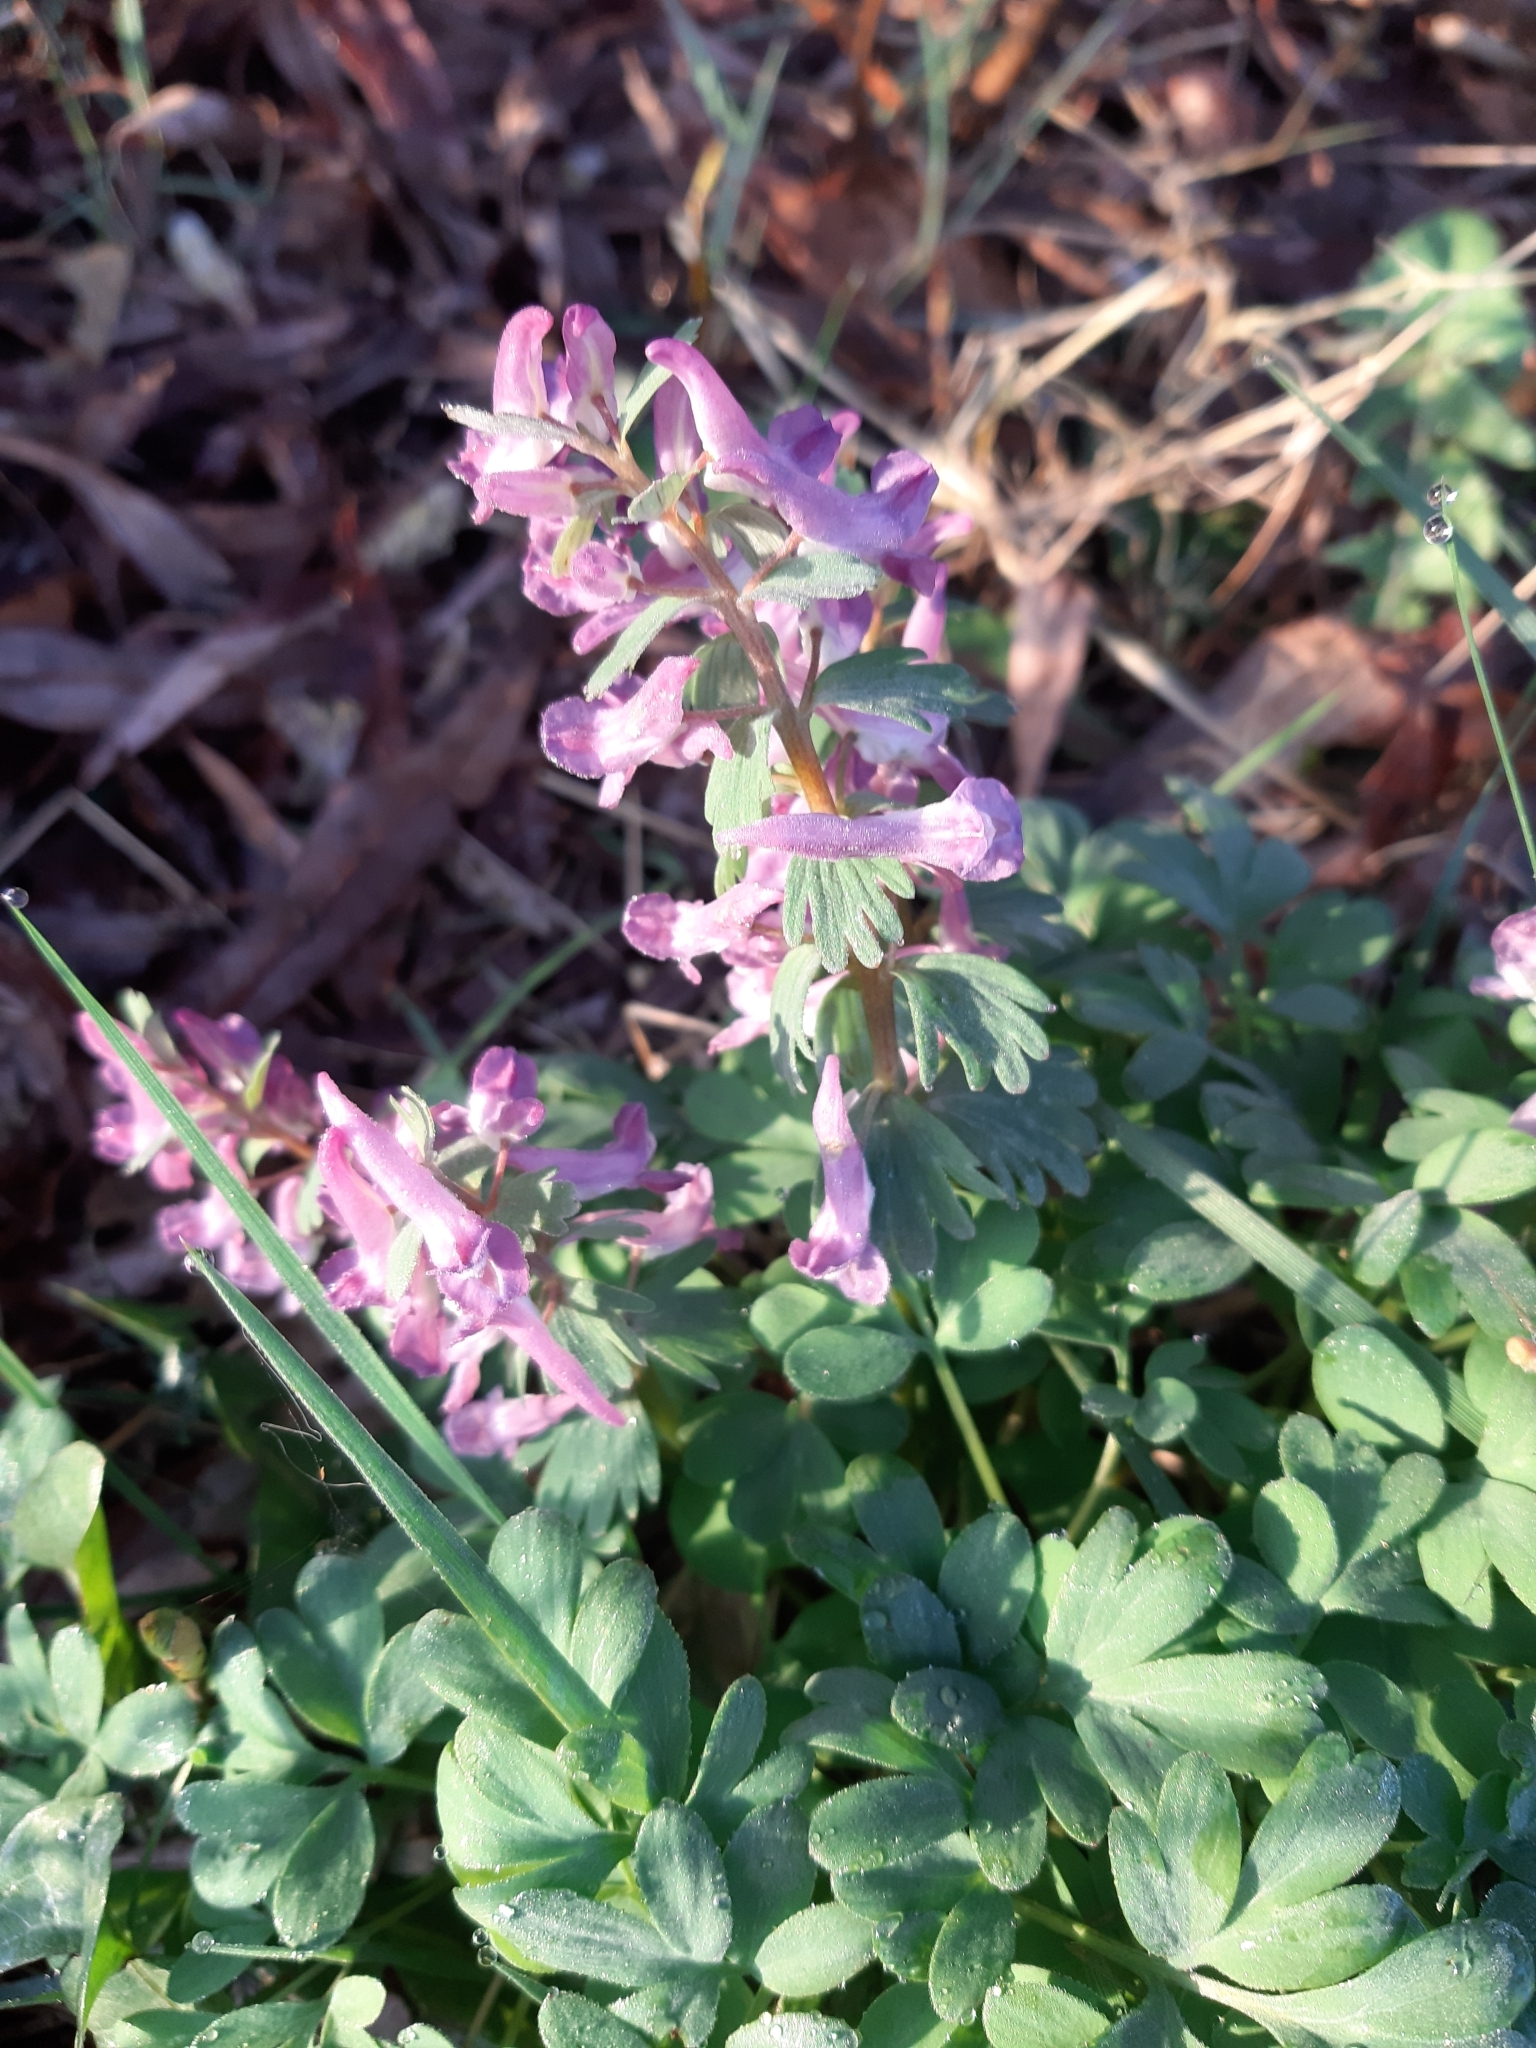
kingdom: Plantae
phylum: Tracheophyta
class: Magnoliopsida
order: Ranunculales
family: Papaveraceae
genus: Corydalis
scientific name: Corydalis solida
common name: Bird-in-a-bush
